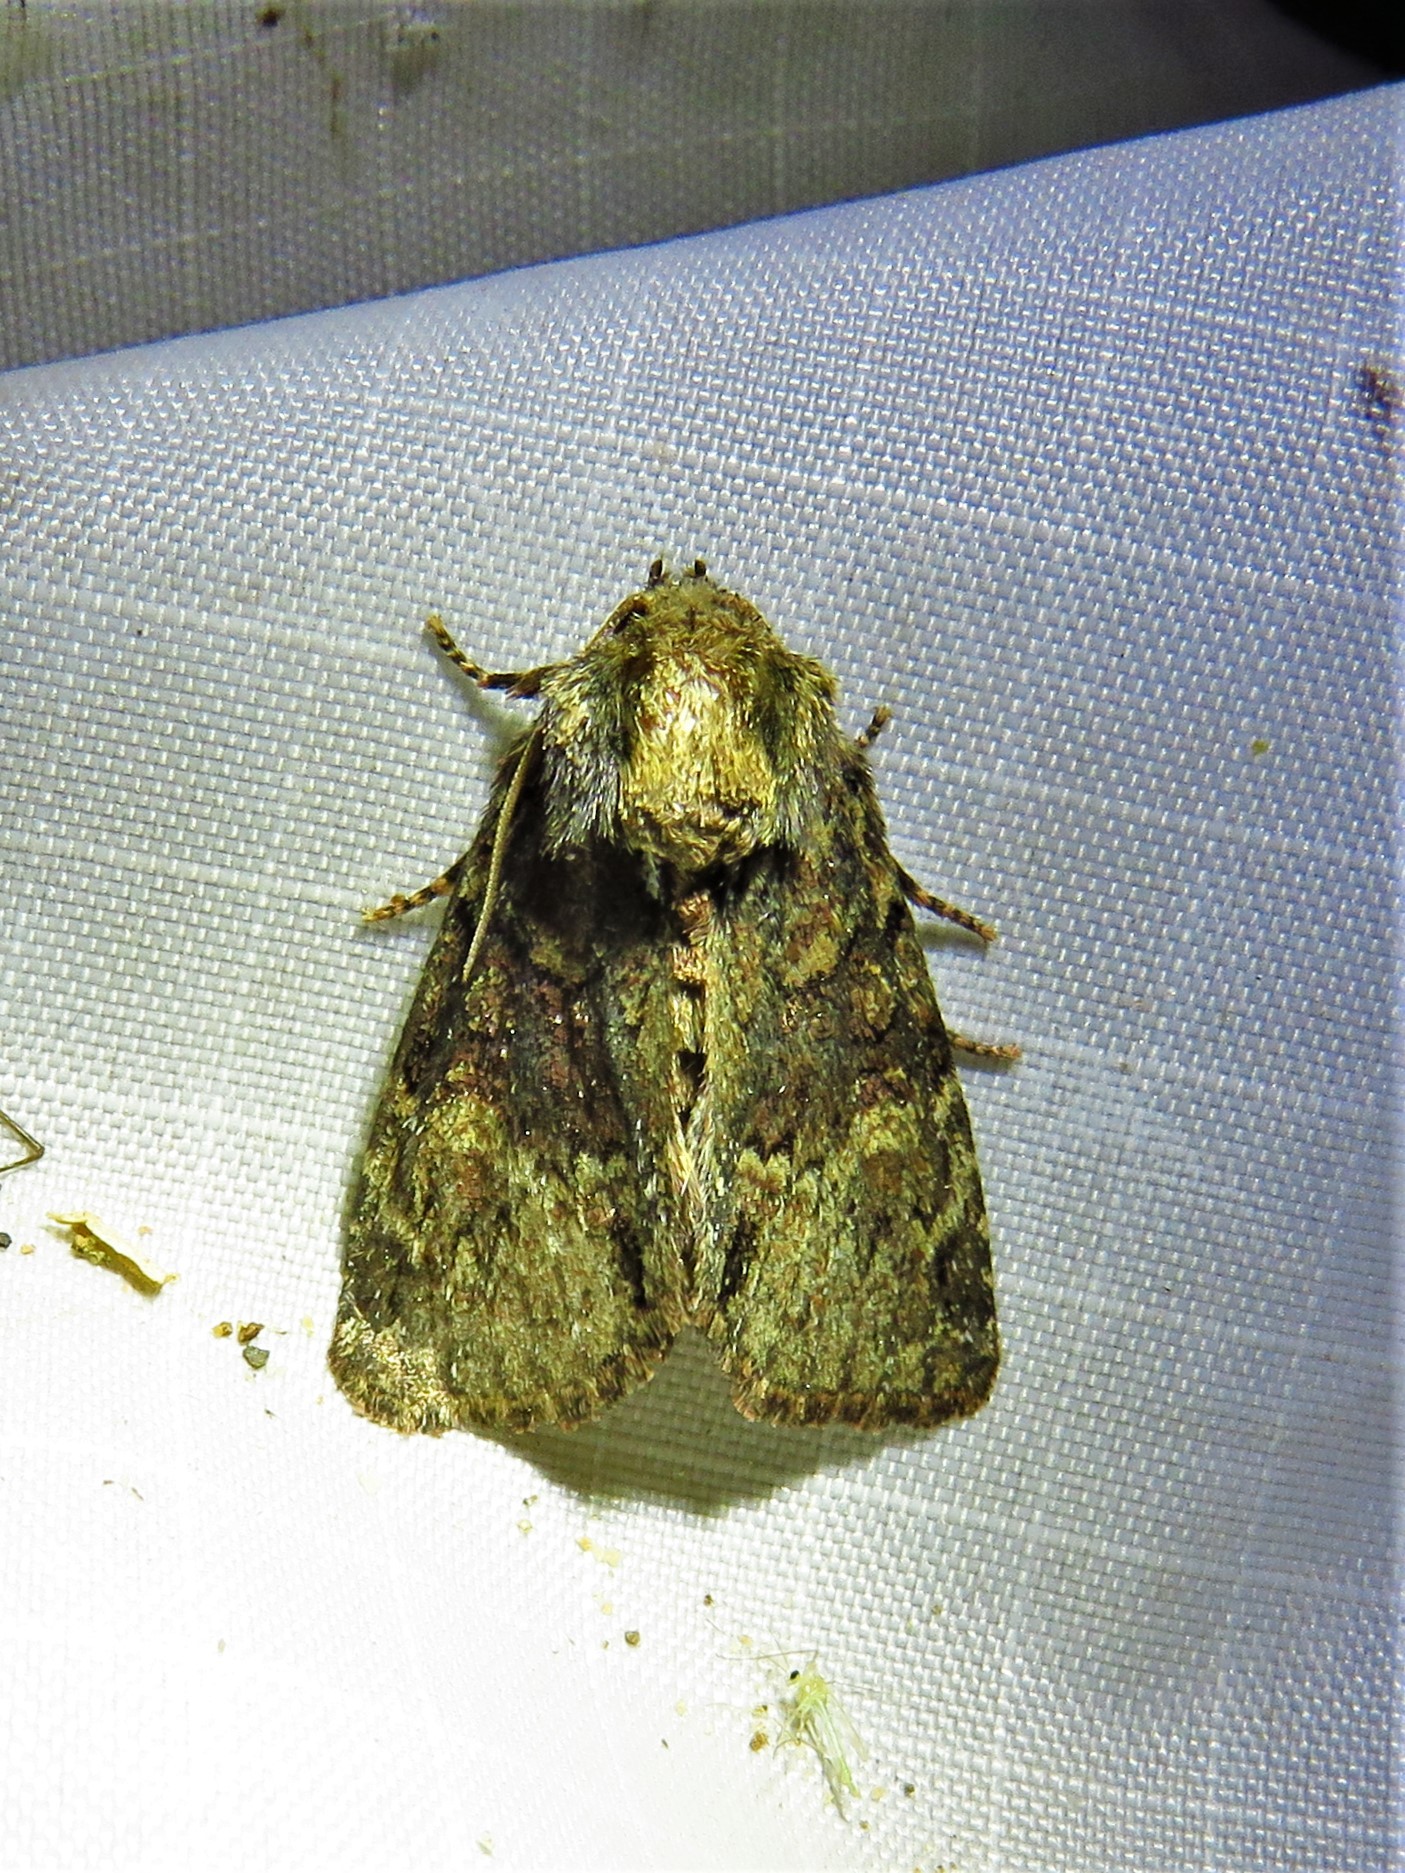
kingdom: Animalia
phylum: Arthropoda
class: Insecta
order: Lepidoptera
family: Noctuidae
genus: Phosphila
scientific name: Phosphila turbulenta
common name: Turbulent phosphila moth
